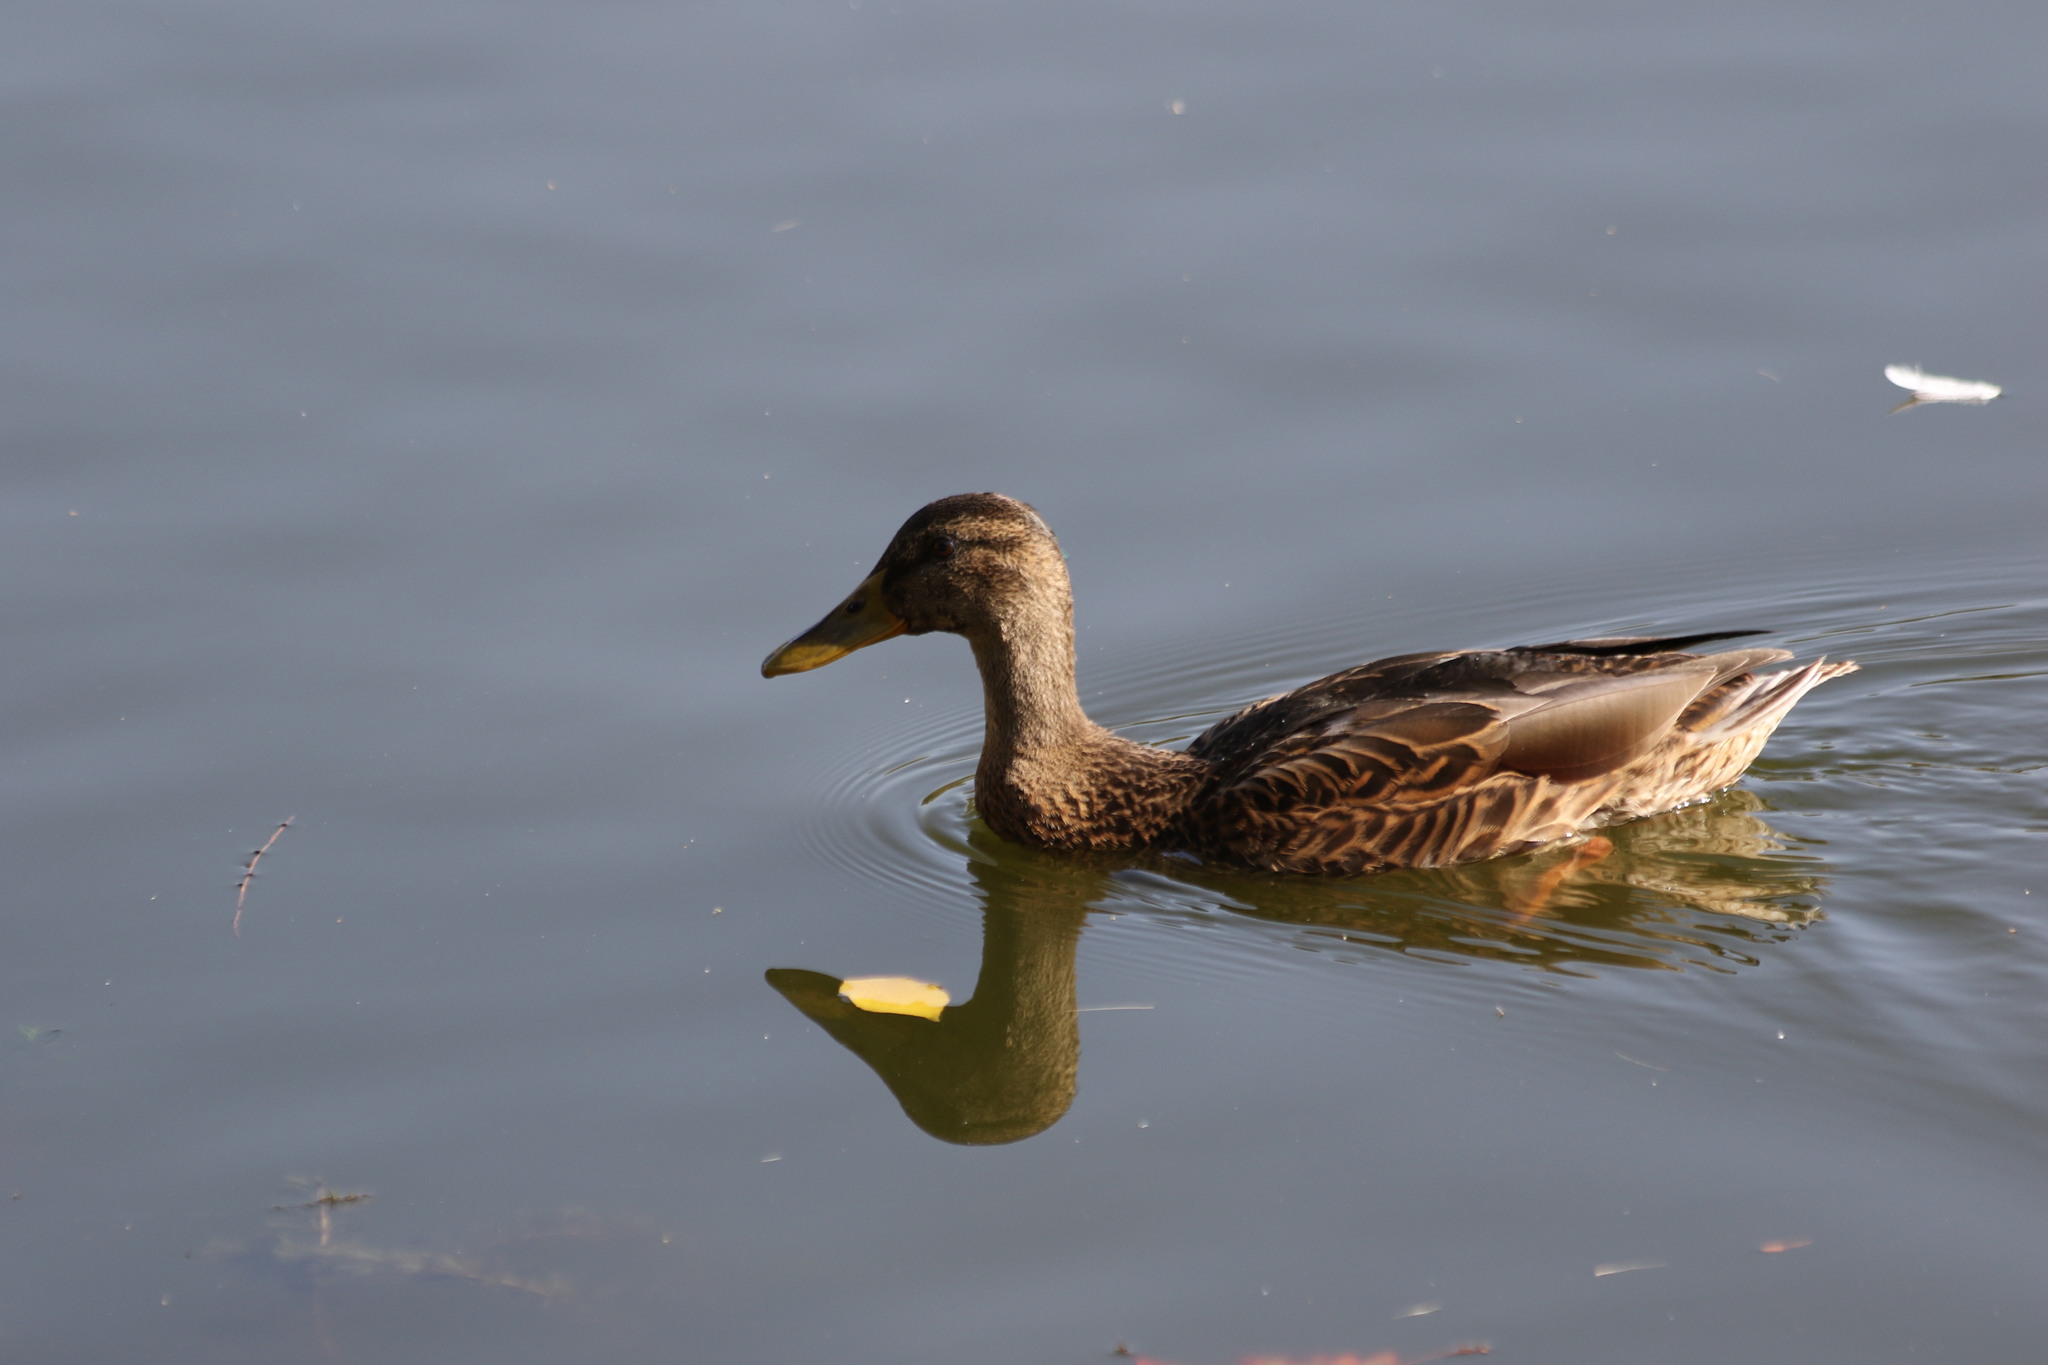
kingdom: Animalia
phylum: Chordata
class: Aves
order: Anseriformes
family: Anatidae
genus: Anas
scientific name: Anas platyrhynchos
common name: Mallard
